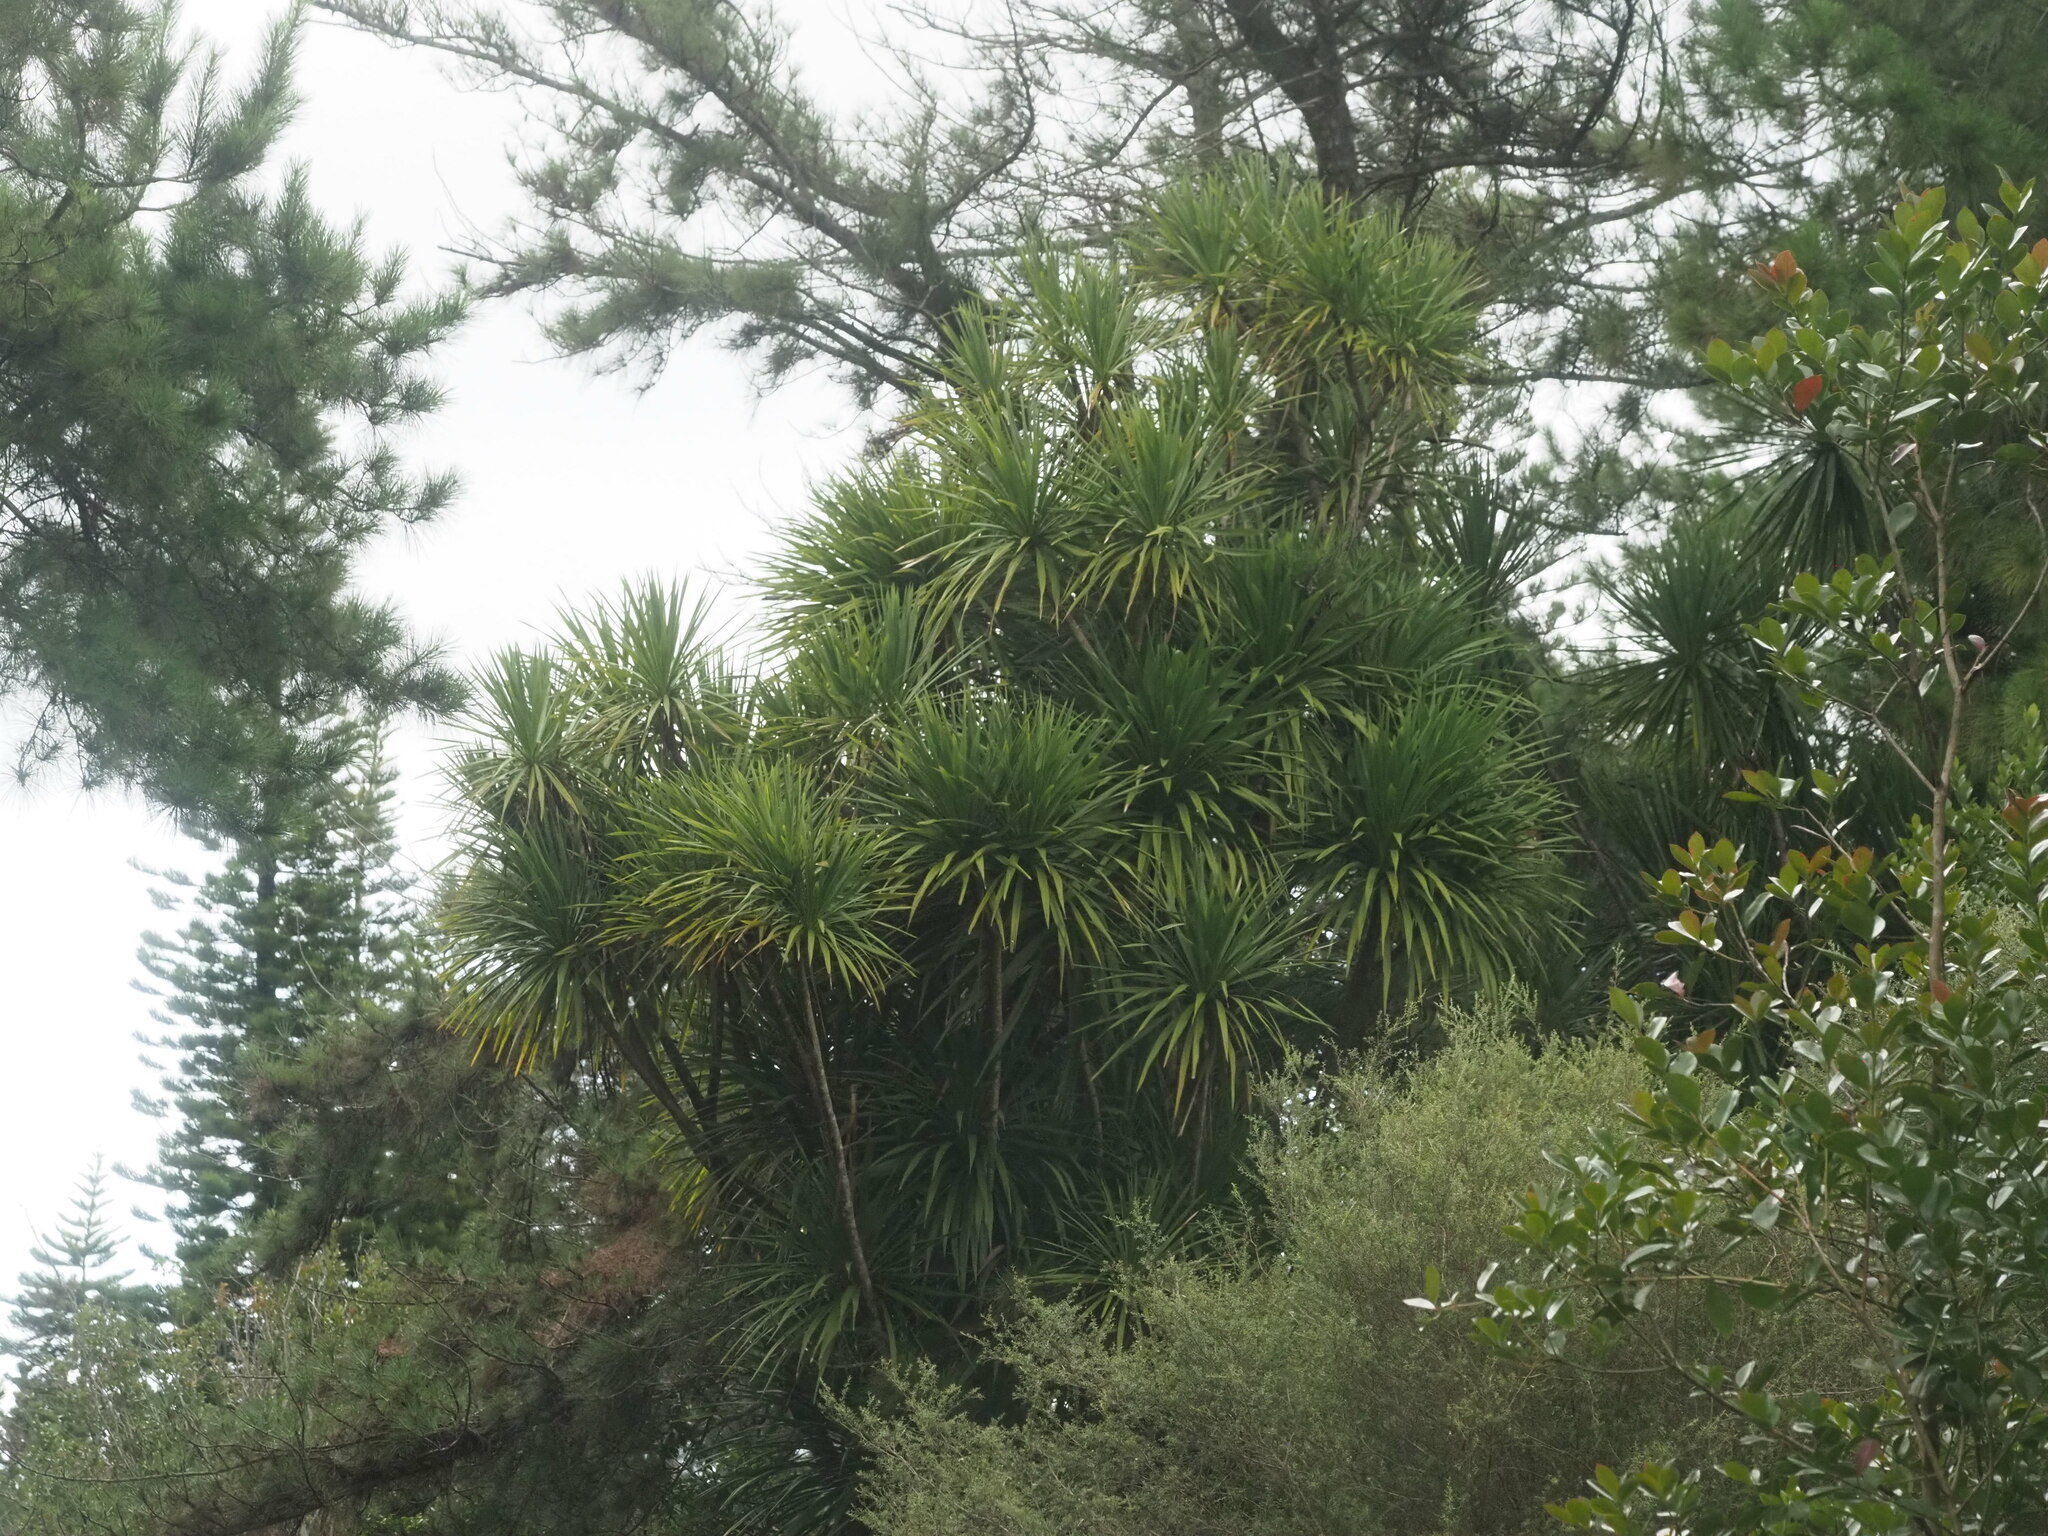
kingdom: Plantae
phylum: Tracheophyta
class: Liliopsida
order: Asparagales
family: Asparagaceae
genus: Cordyline
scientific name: Cordyline australis
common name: Cabbage-palm
